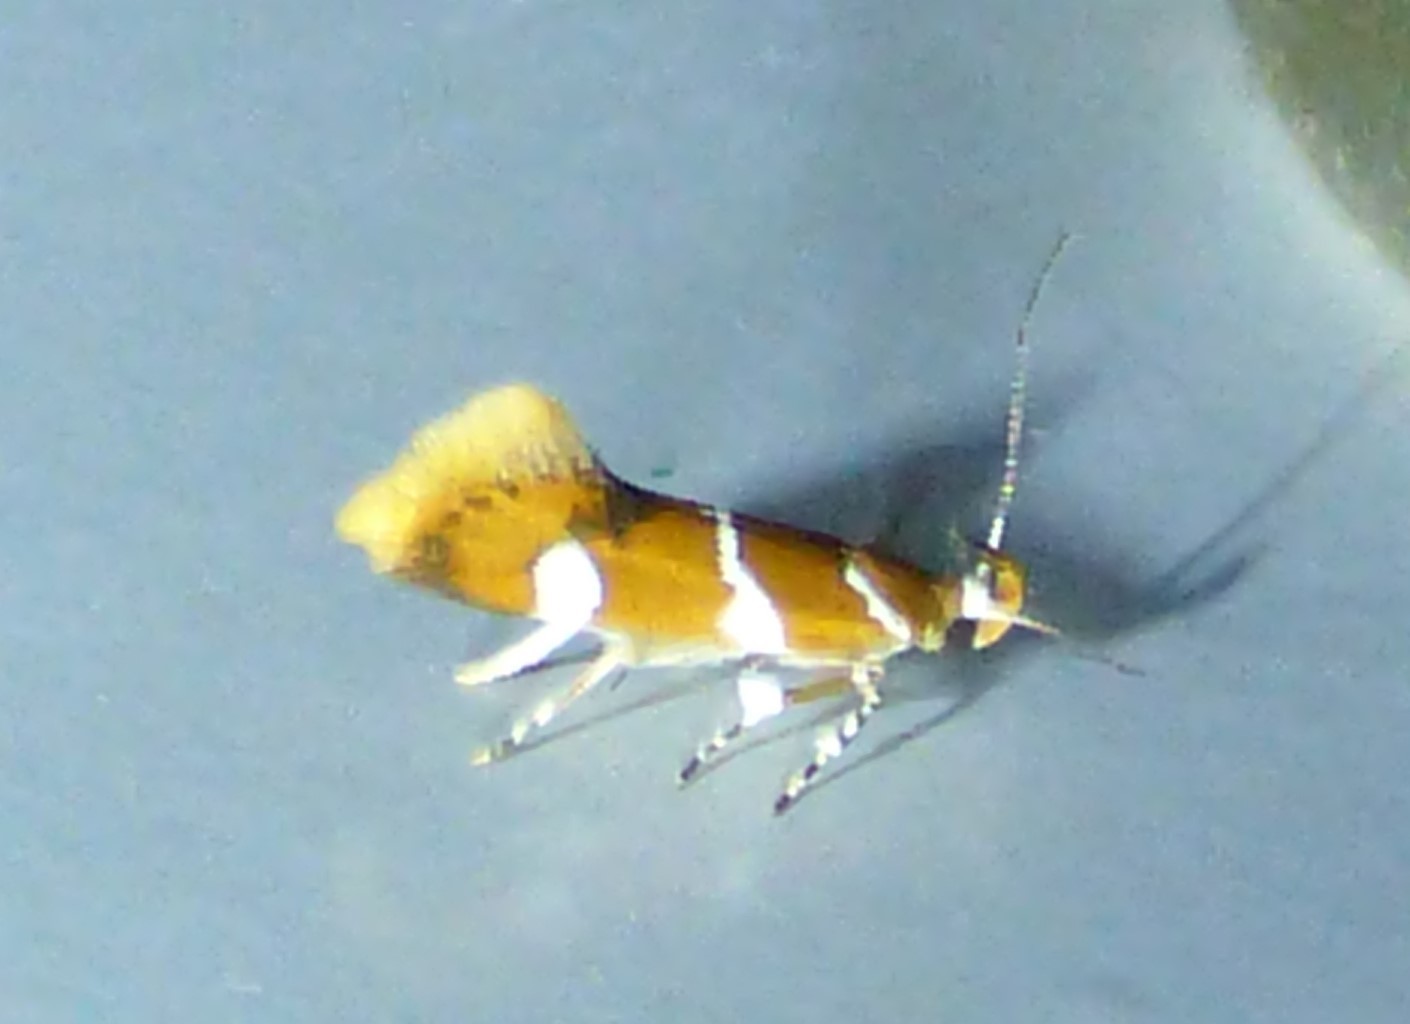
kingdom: Animalia
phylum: Arthropoda
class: Insecta
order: Lepidoptera
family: Oecophoridae
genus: Promalactis
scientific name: Promalactis suzukiella
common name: Moth
